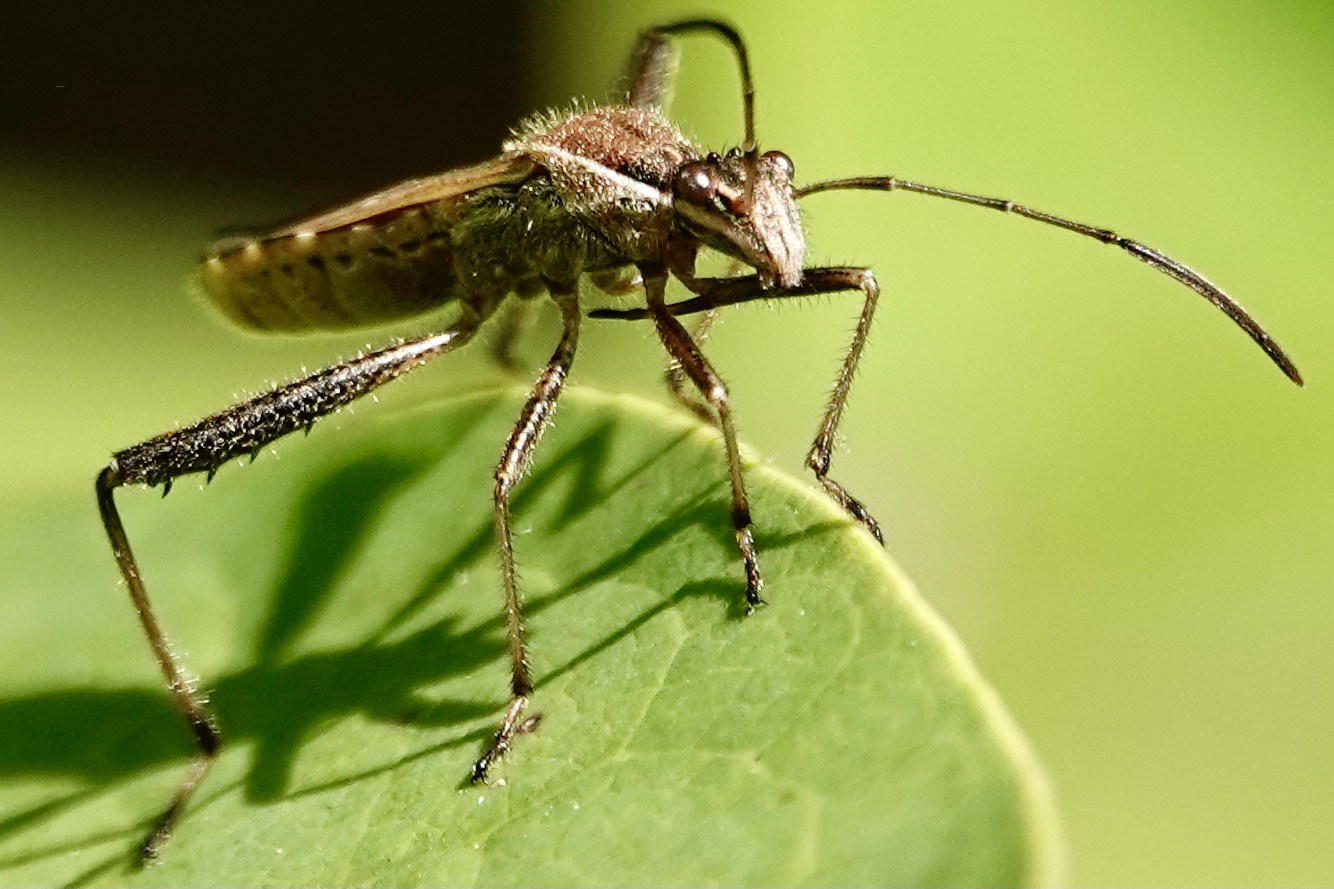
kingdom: Animalia
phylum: Arthropoda
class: Insecta
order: Hemiptera
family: Alydidae
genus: Alydus
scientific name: Alydus pilosulus
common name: Broad-headed bug
